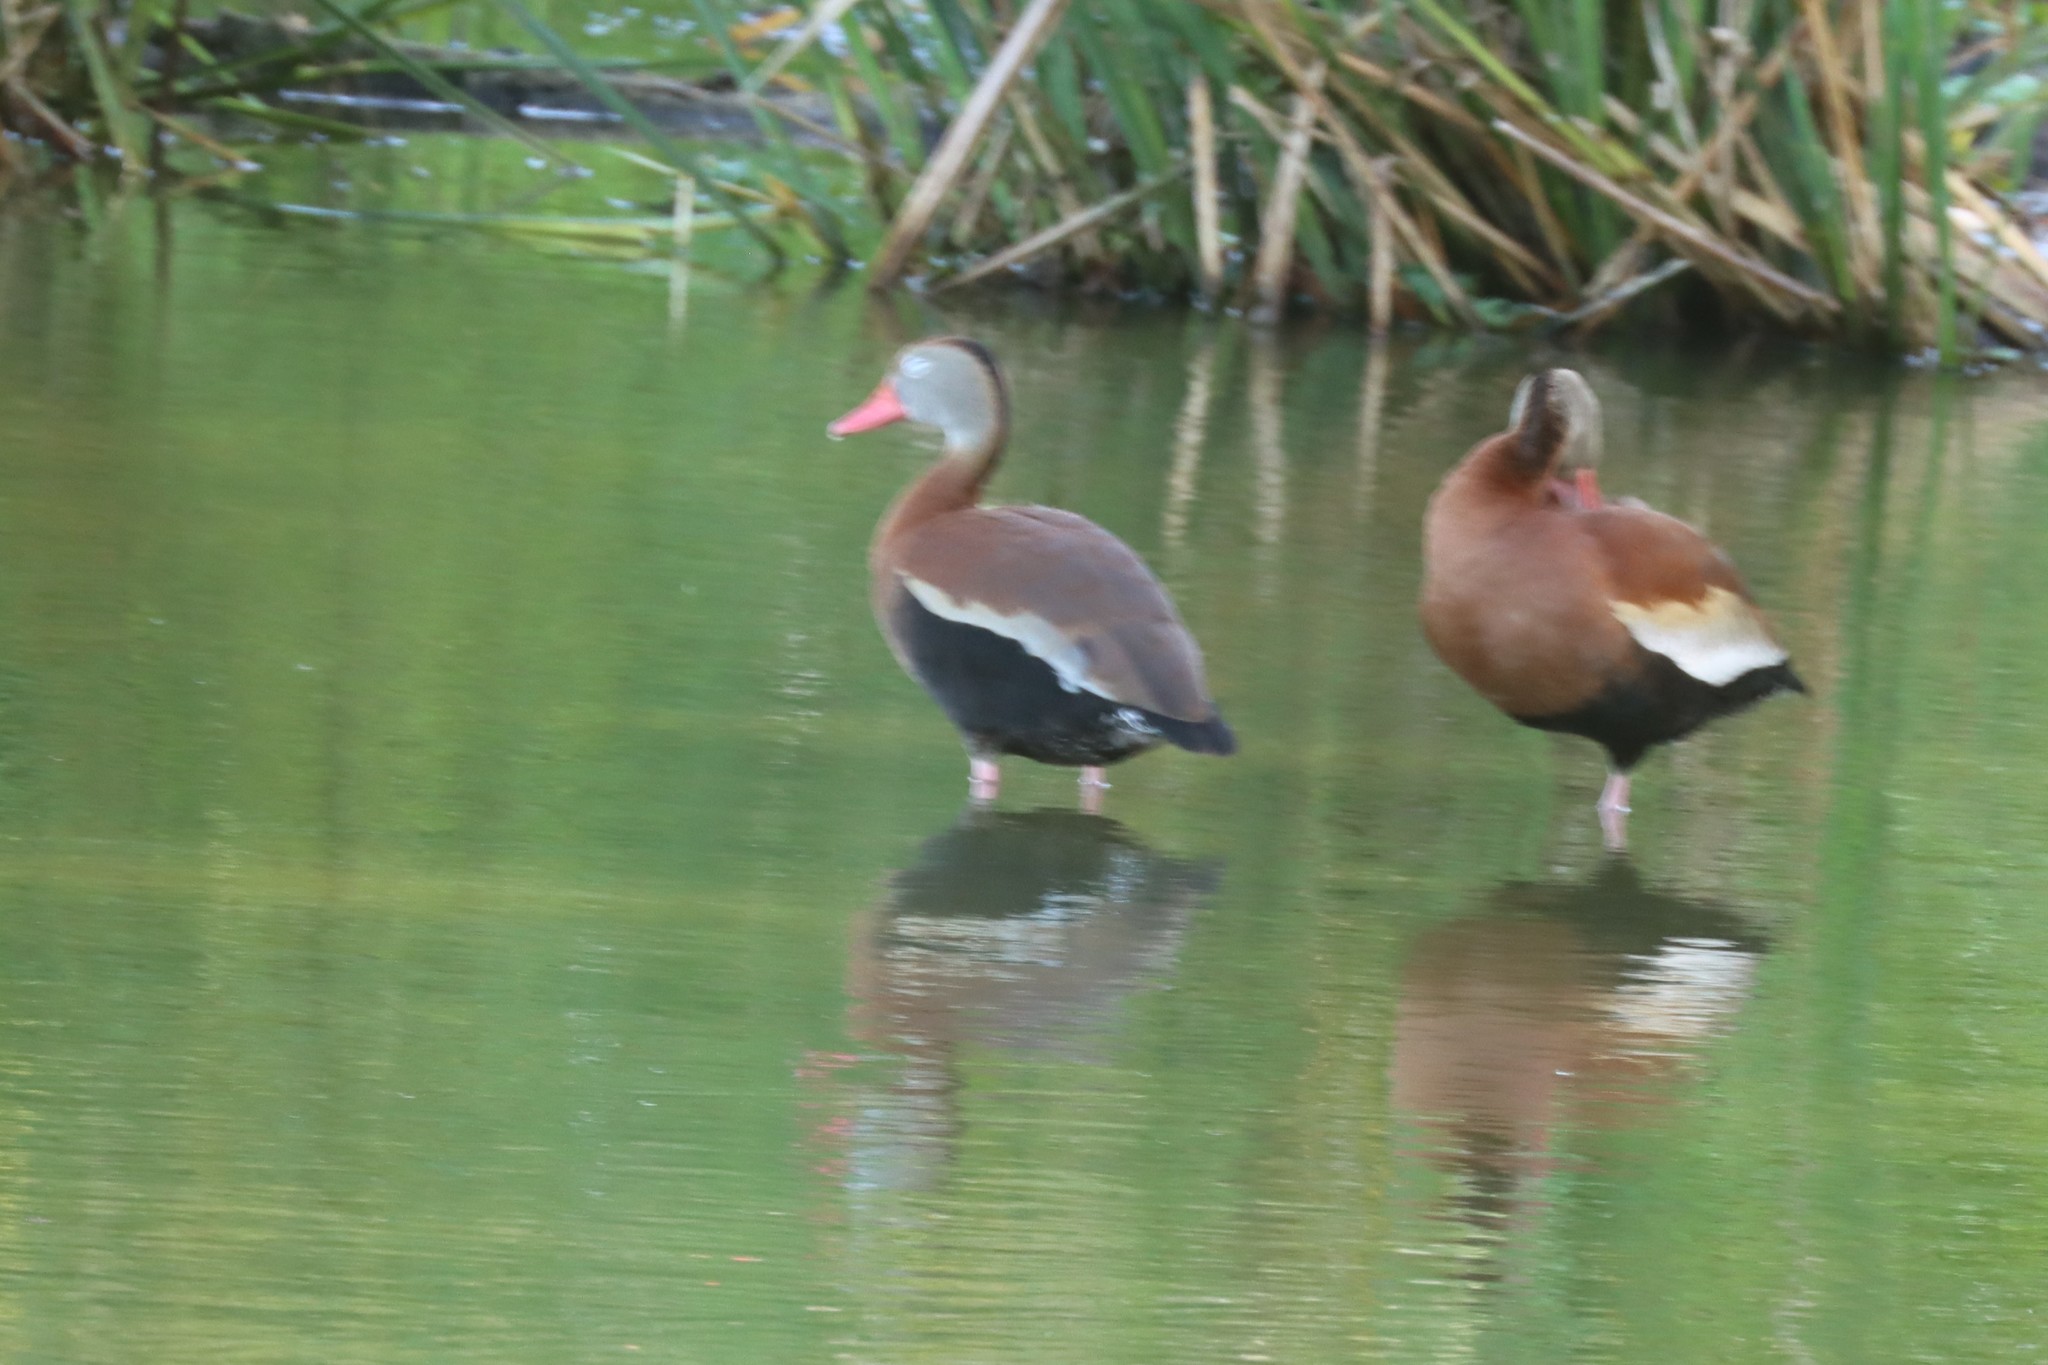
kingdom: Animalia
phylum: Chordata
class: Aves
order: Anseriformes
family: Anatidae
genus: Dendrocygna
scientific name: Dendrocygna autumnalis
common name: Black-bellied whistling duck
